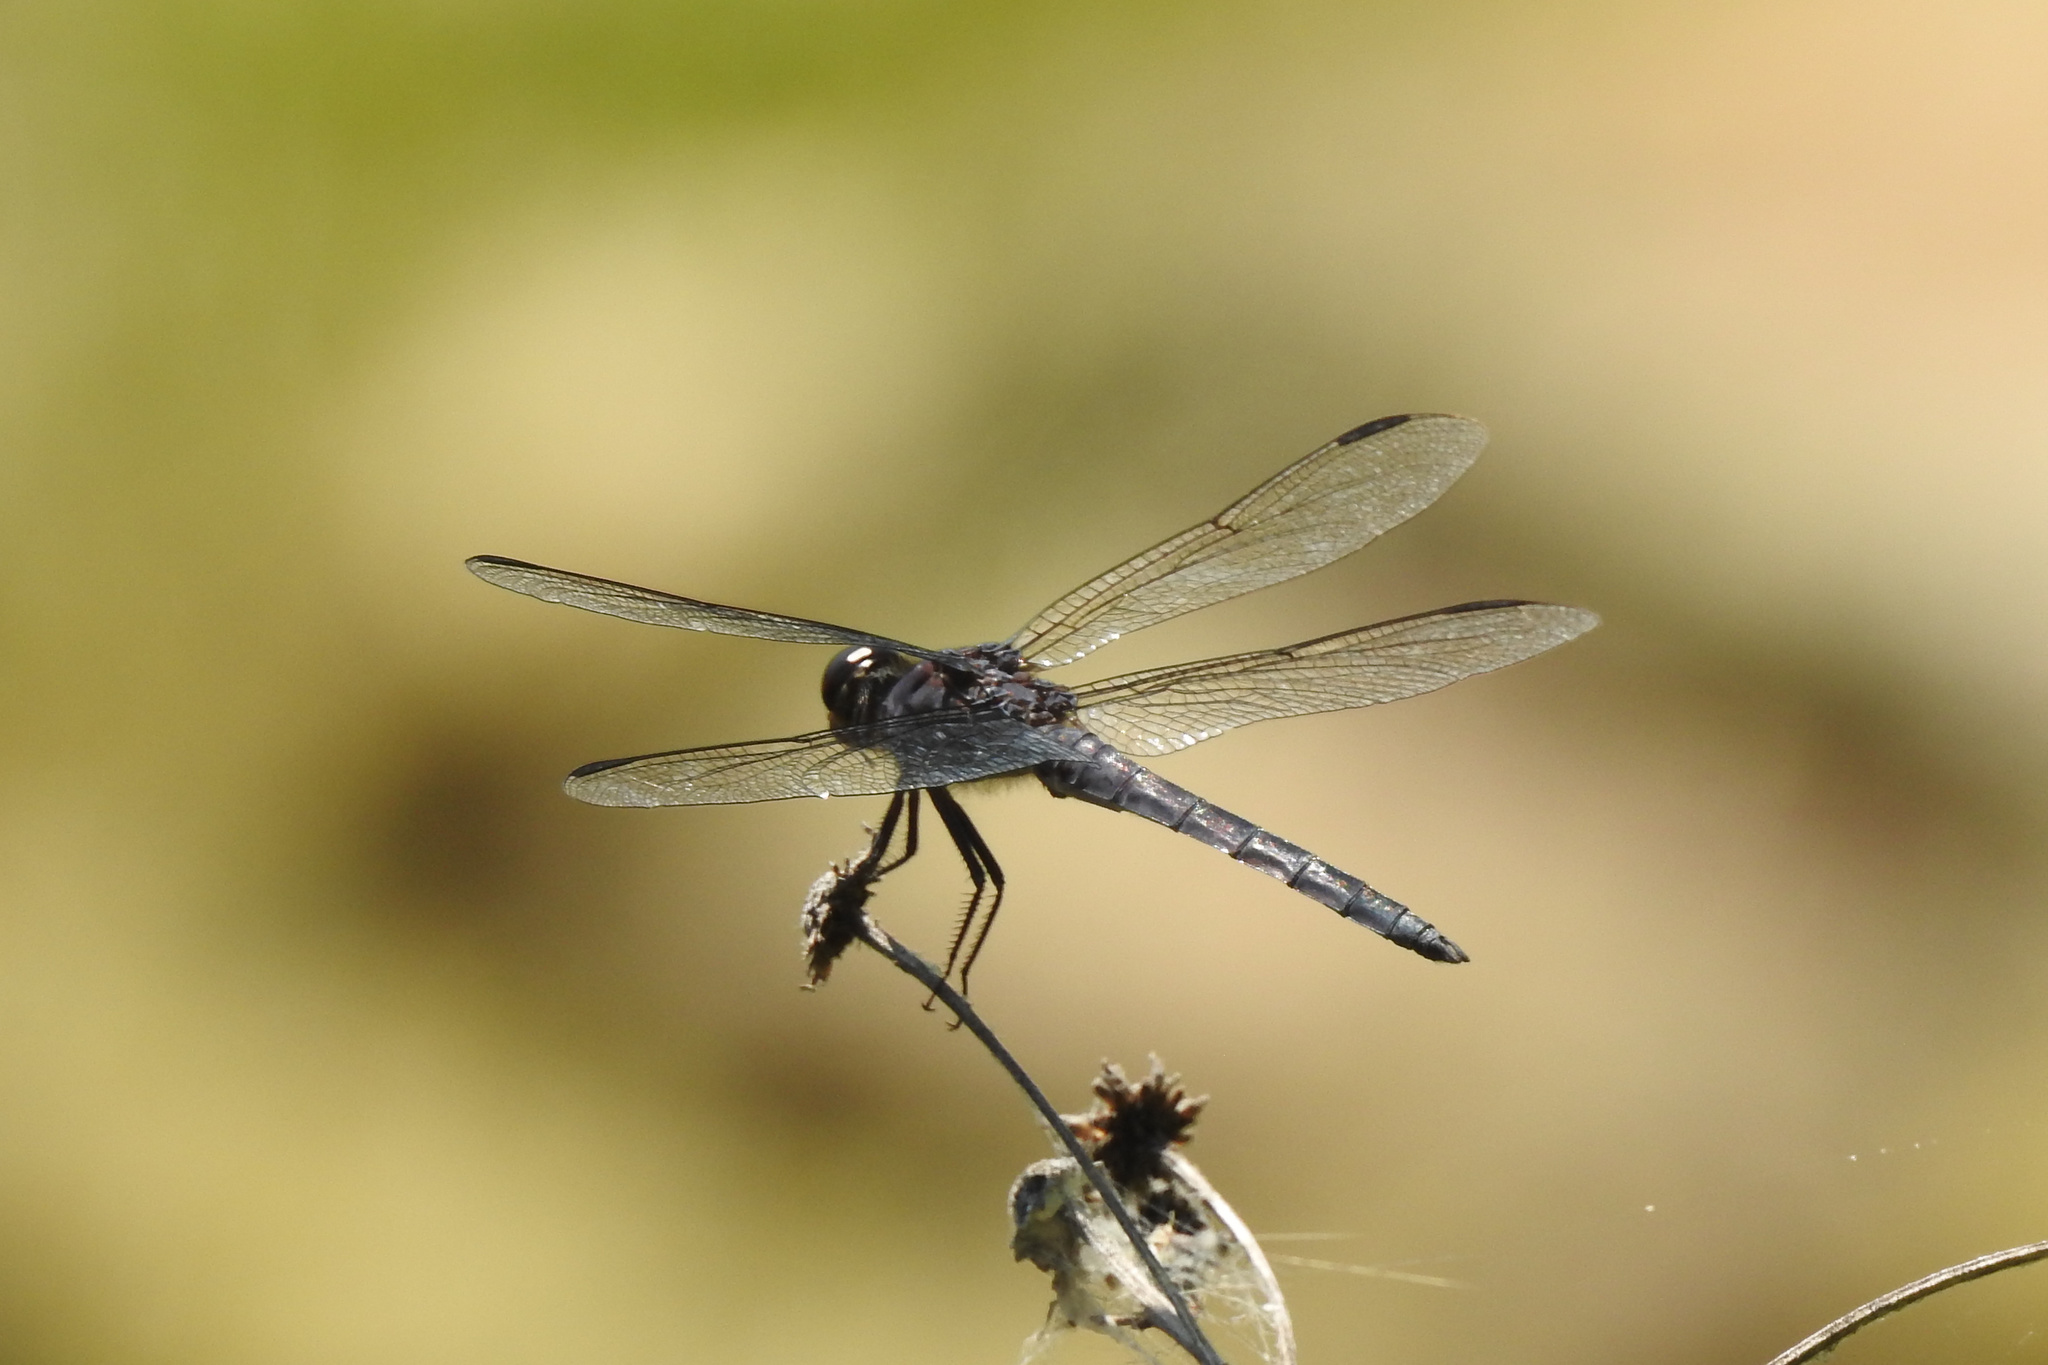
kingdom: Animalia
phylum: Arthropoda
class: Insecta
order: Odonata
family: Libellulidae
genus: Libellula
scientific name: Libellula incesta
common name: Slaty skimmer
